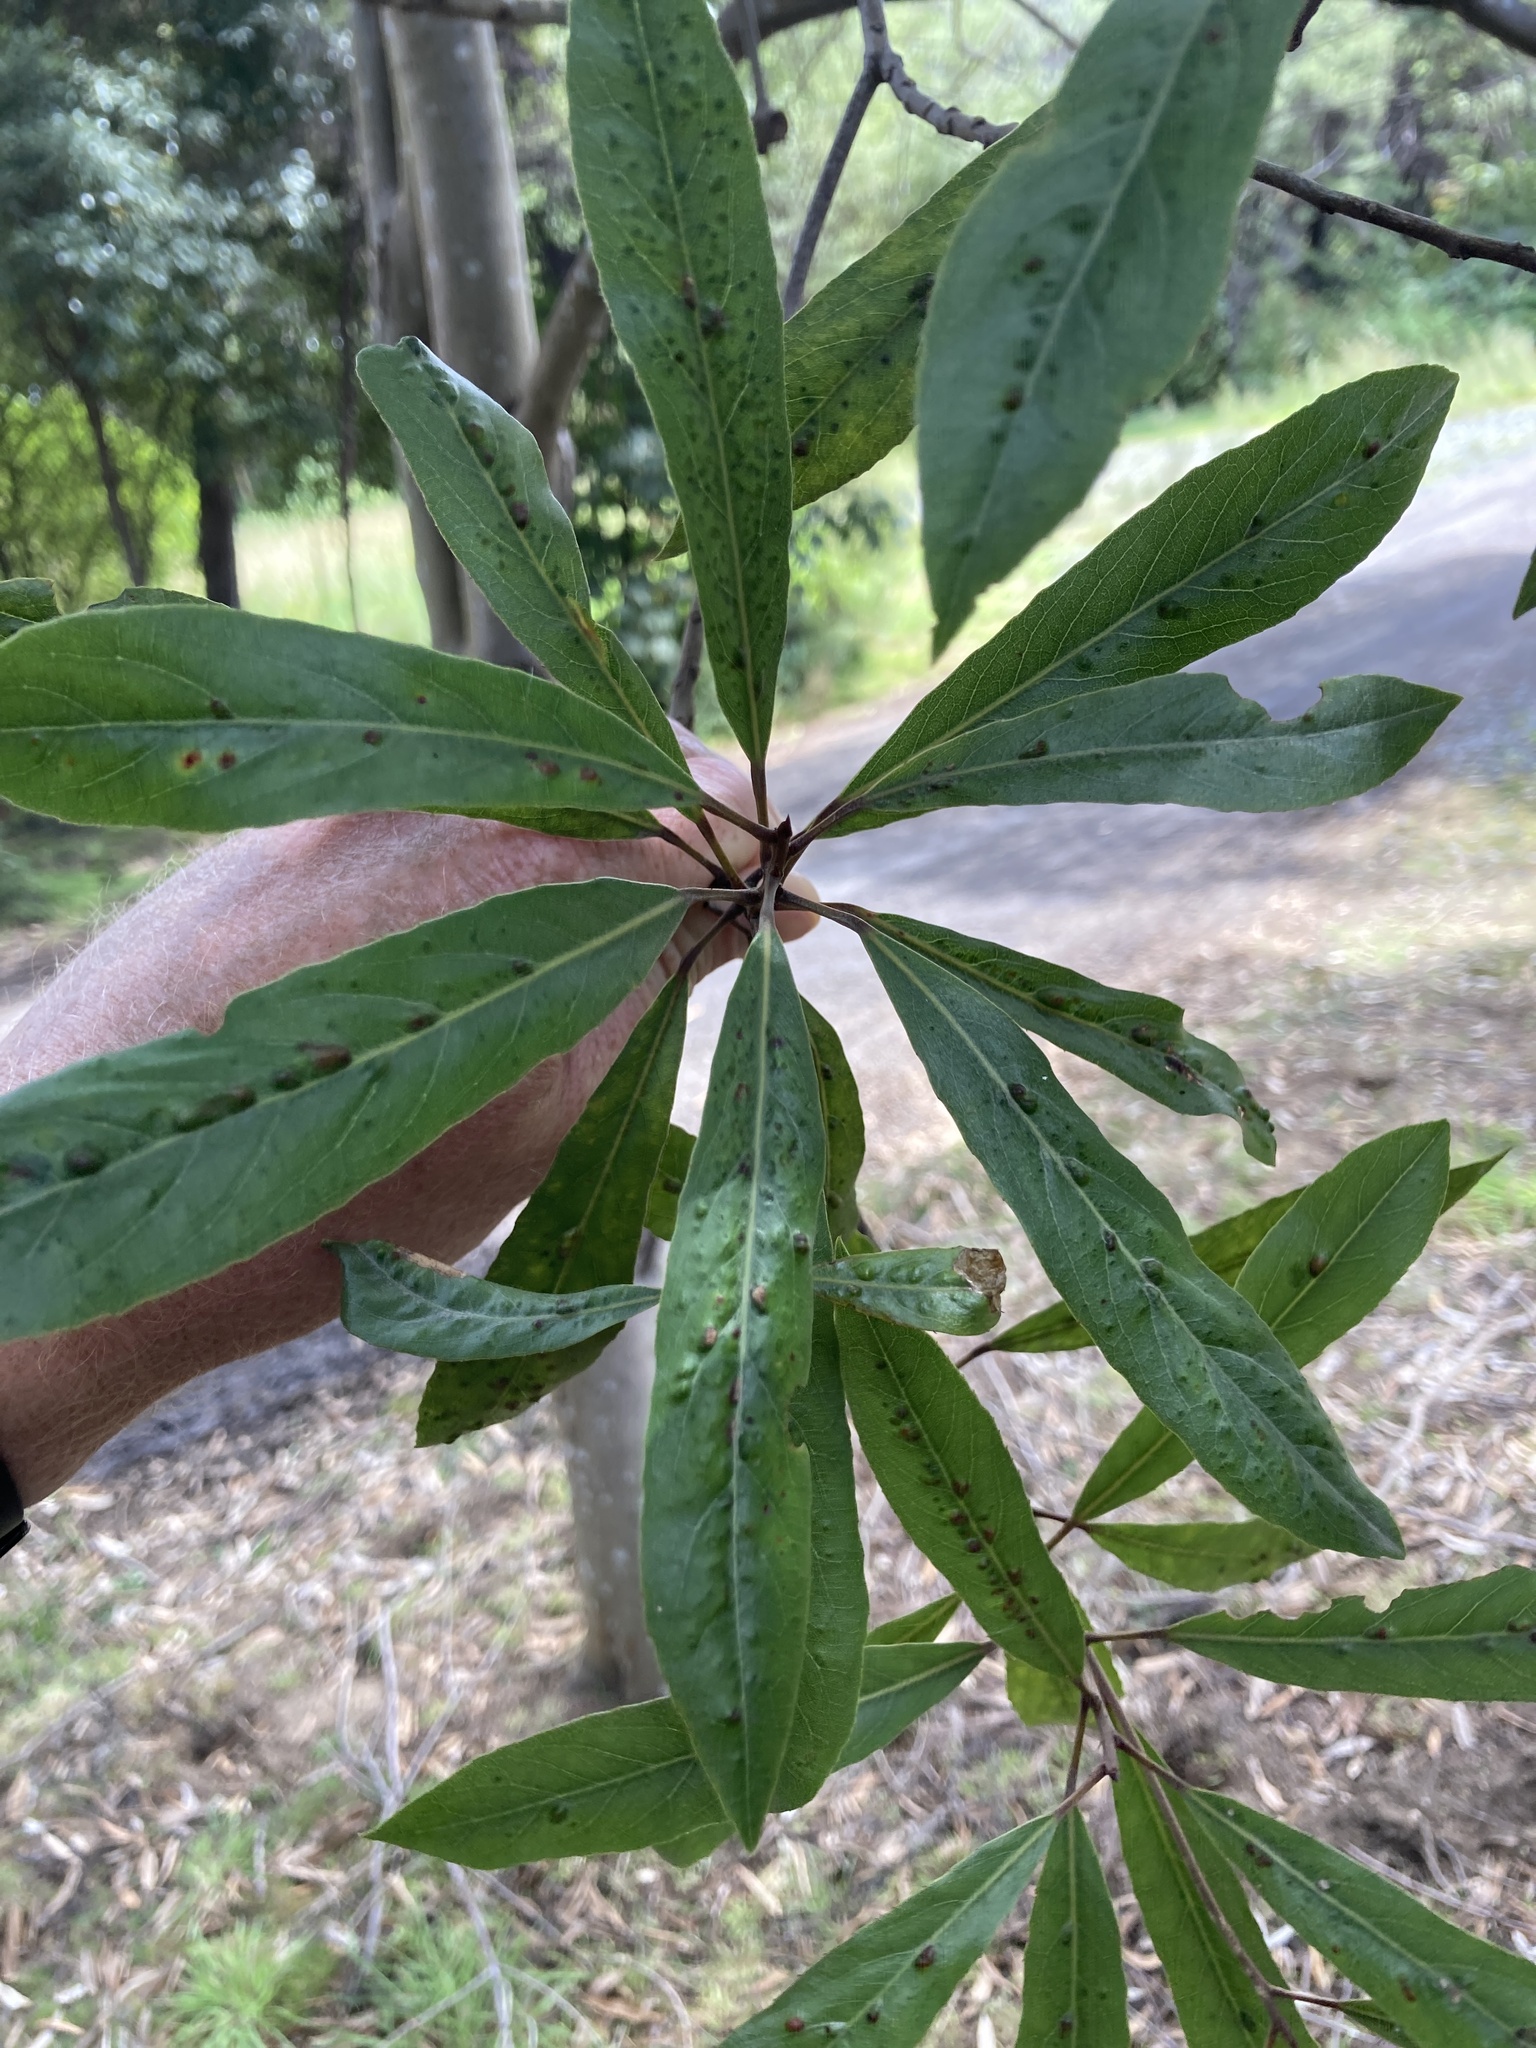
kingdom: Plantae
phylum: Tracheophyta
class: Magnoliopsida
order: Oxalidales
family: Elaeocarpaceae
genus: Elaeocarpus
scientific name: Elaeocarpus dentatus
